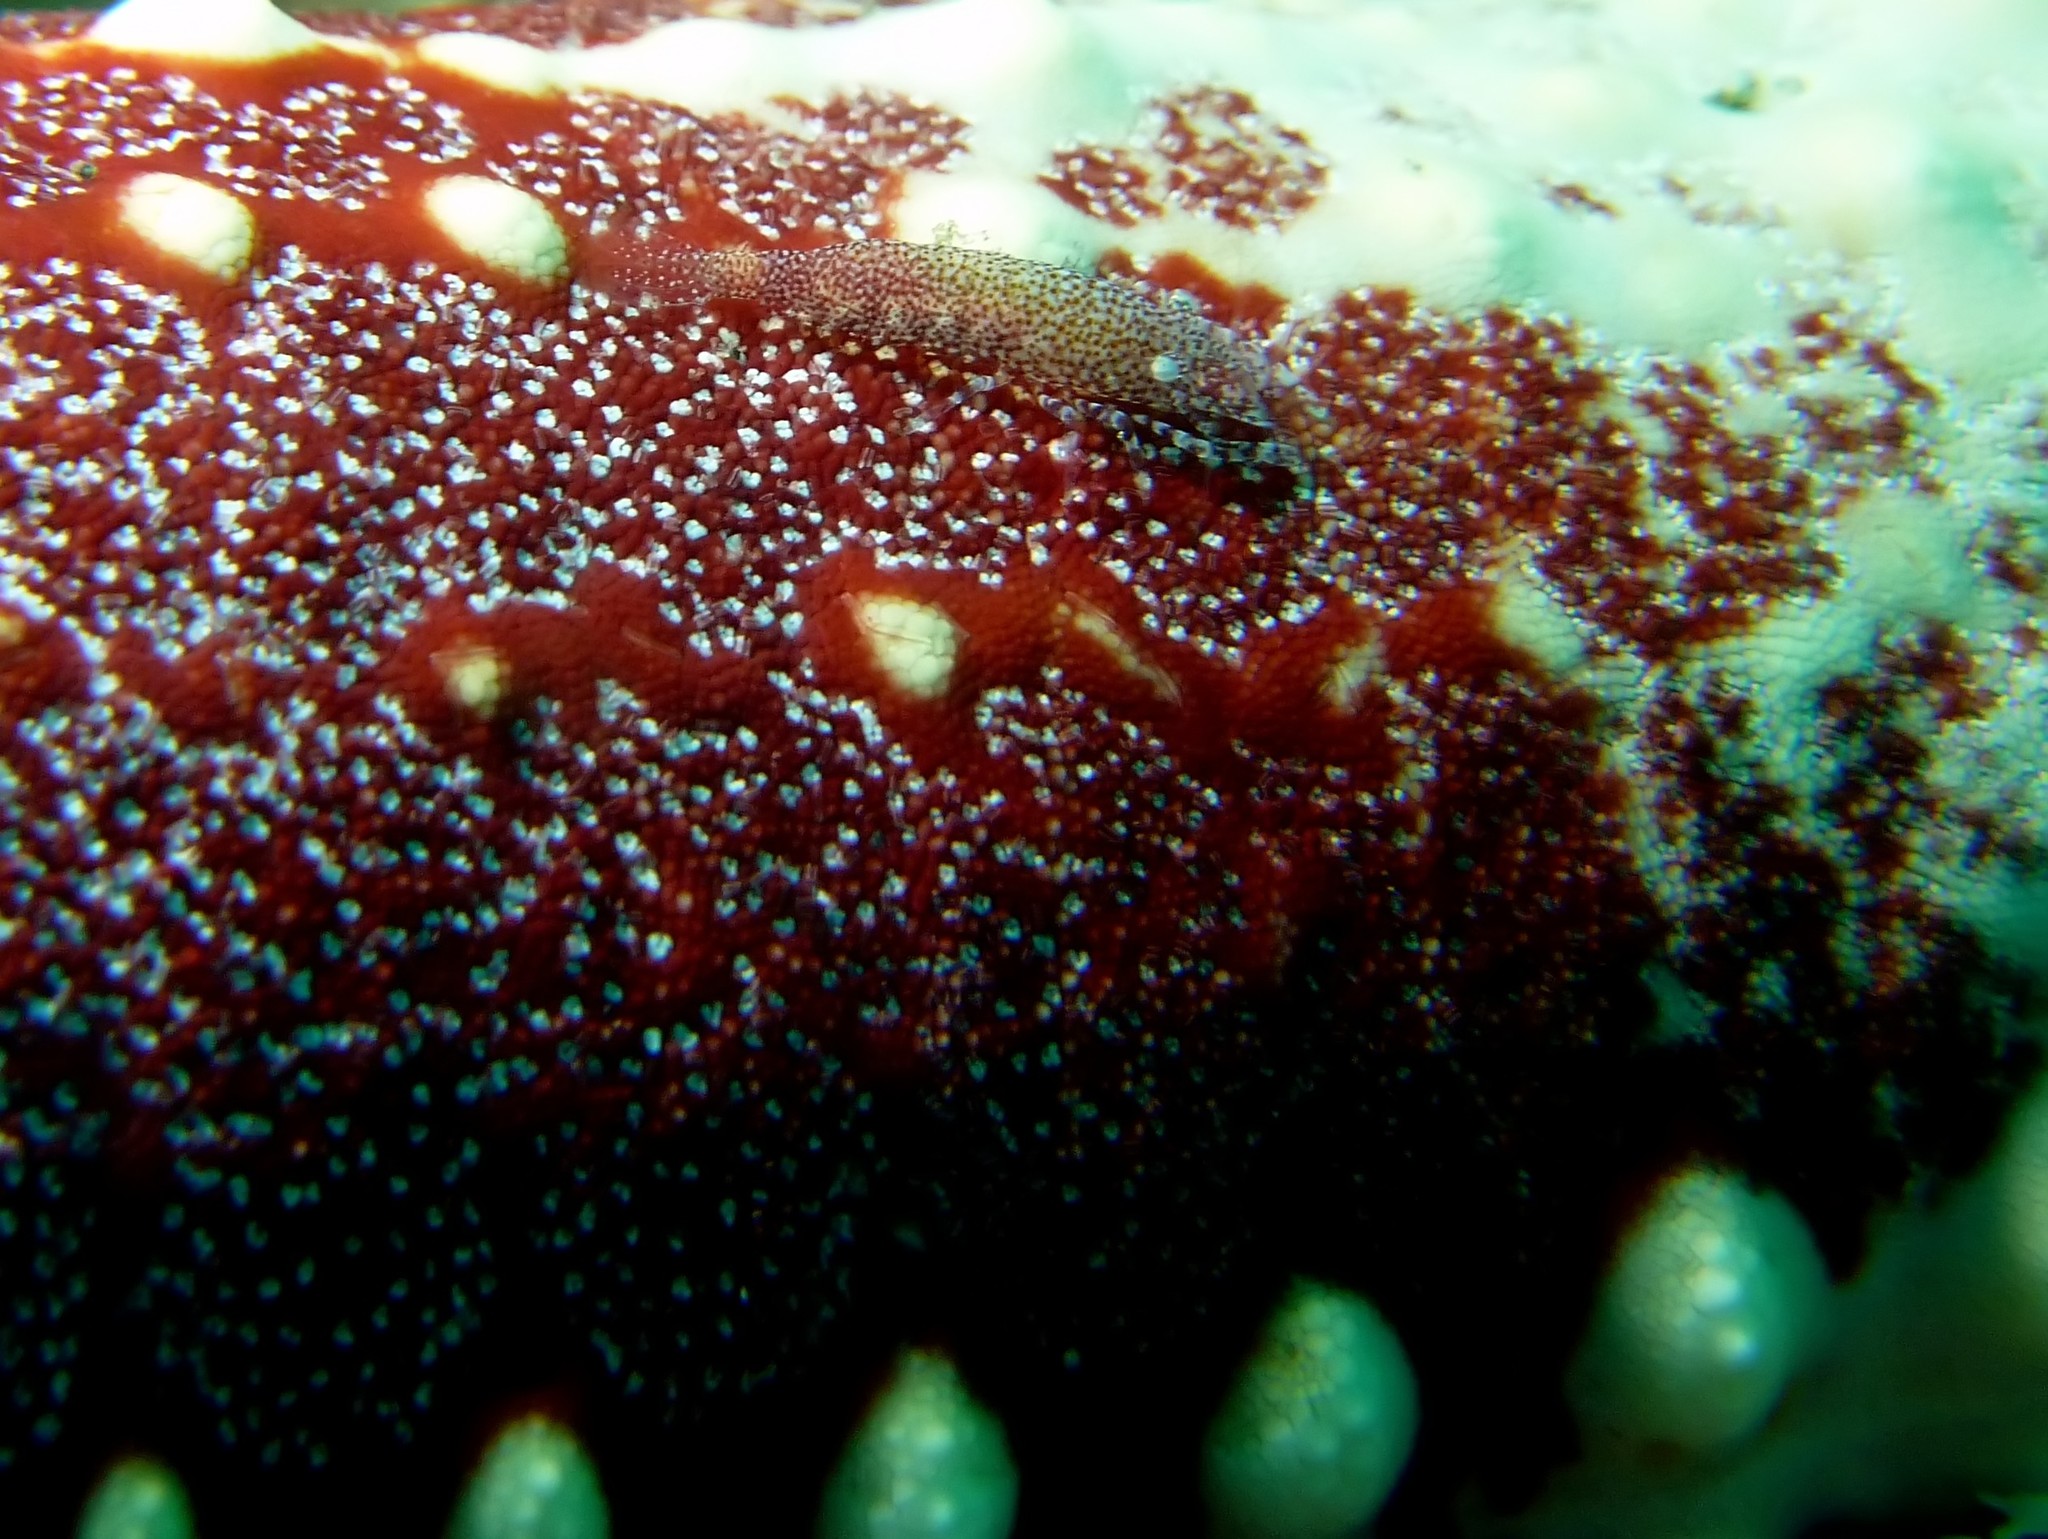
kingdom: Animalia
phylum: Arthropoda
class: Malacostraca
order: Decapoda
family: Palaemonidae
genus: Zenopontonia
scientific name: Zenopontonia noverca
